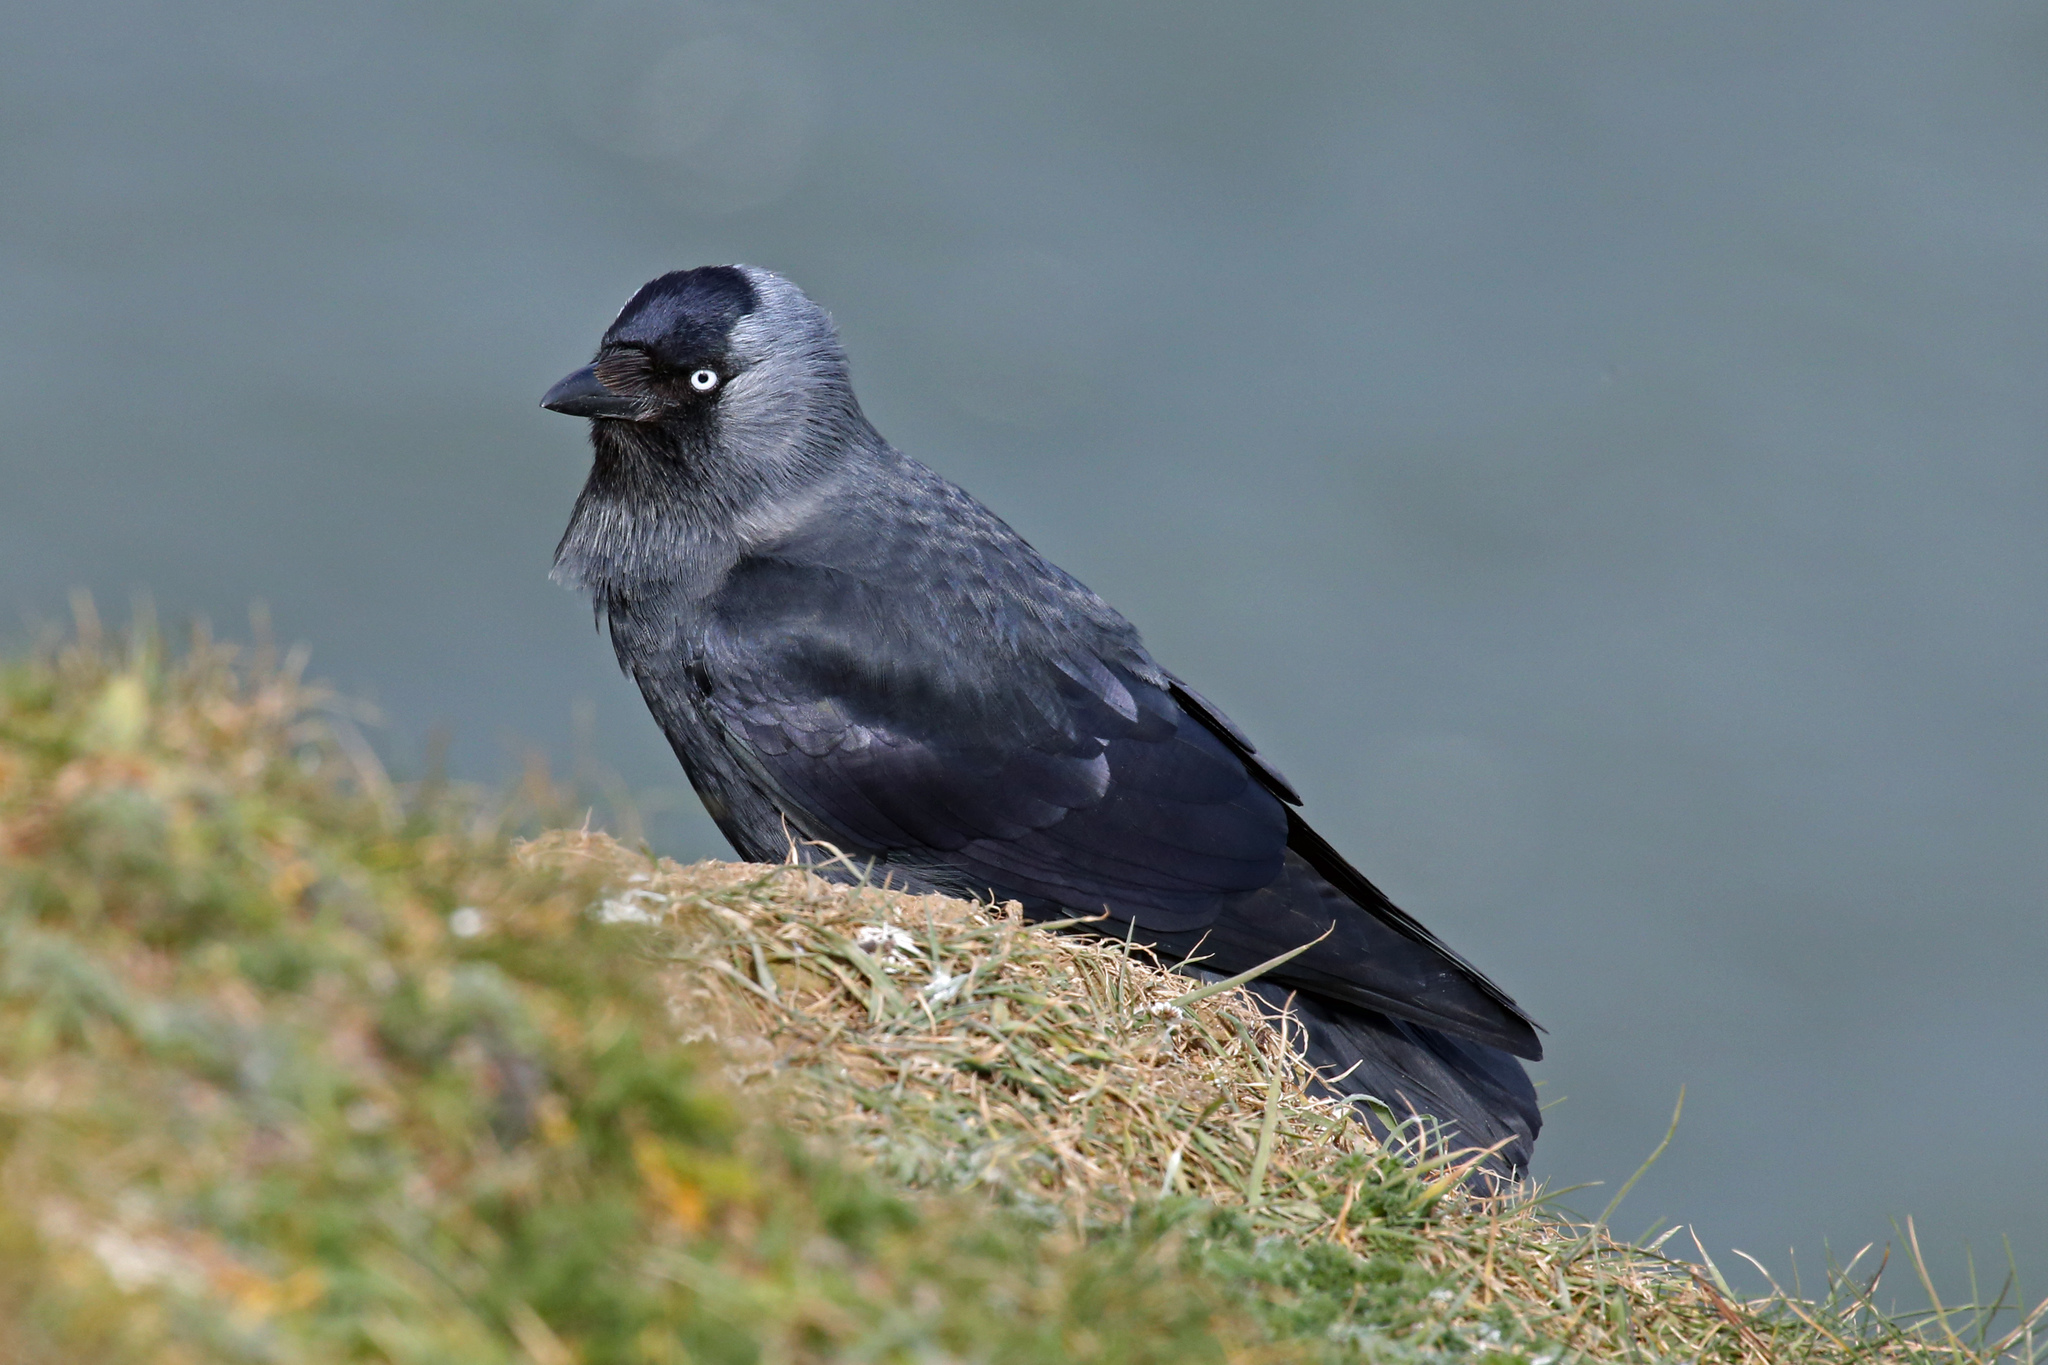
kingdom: Animalia
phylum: Chordata
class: Aves
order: Passeriformes
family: Corvidae
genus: Coloeus
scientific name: Coloeus monedula
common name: Western jackdaw
